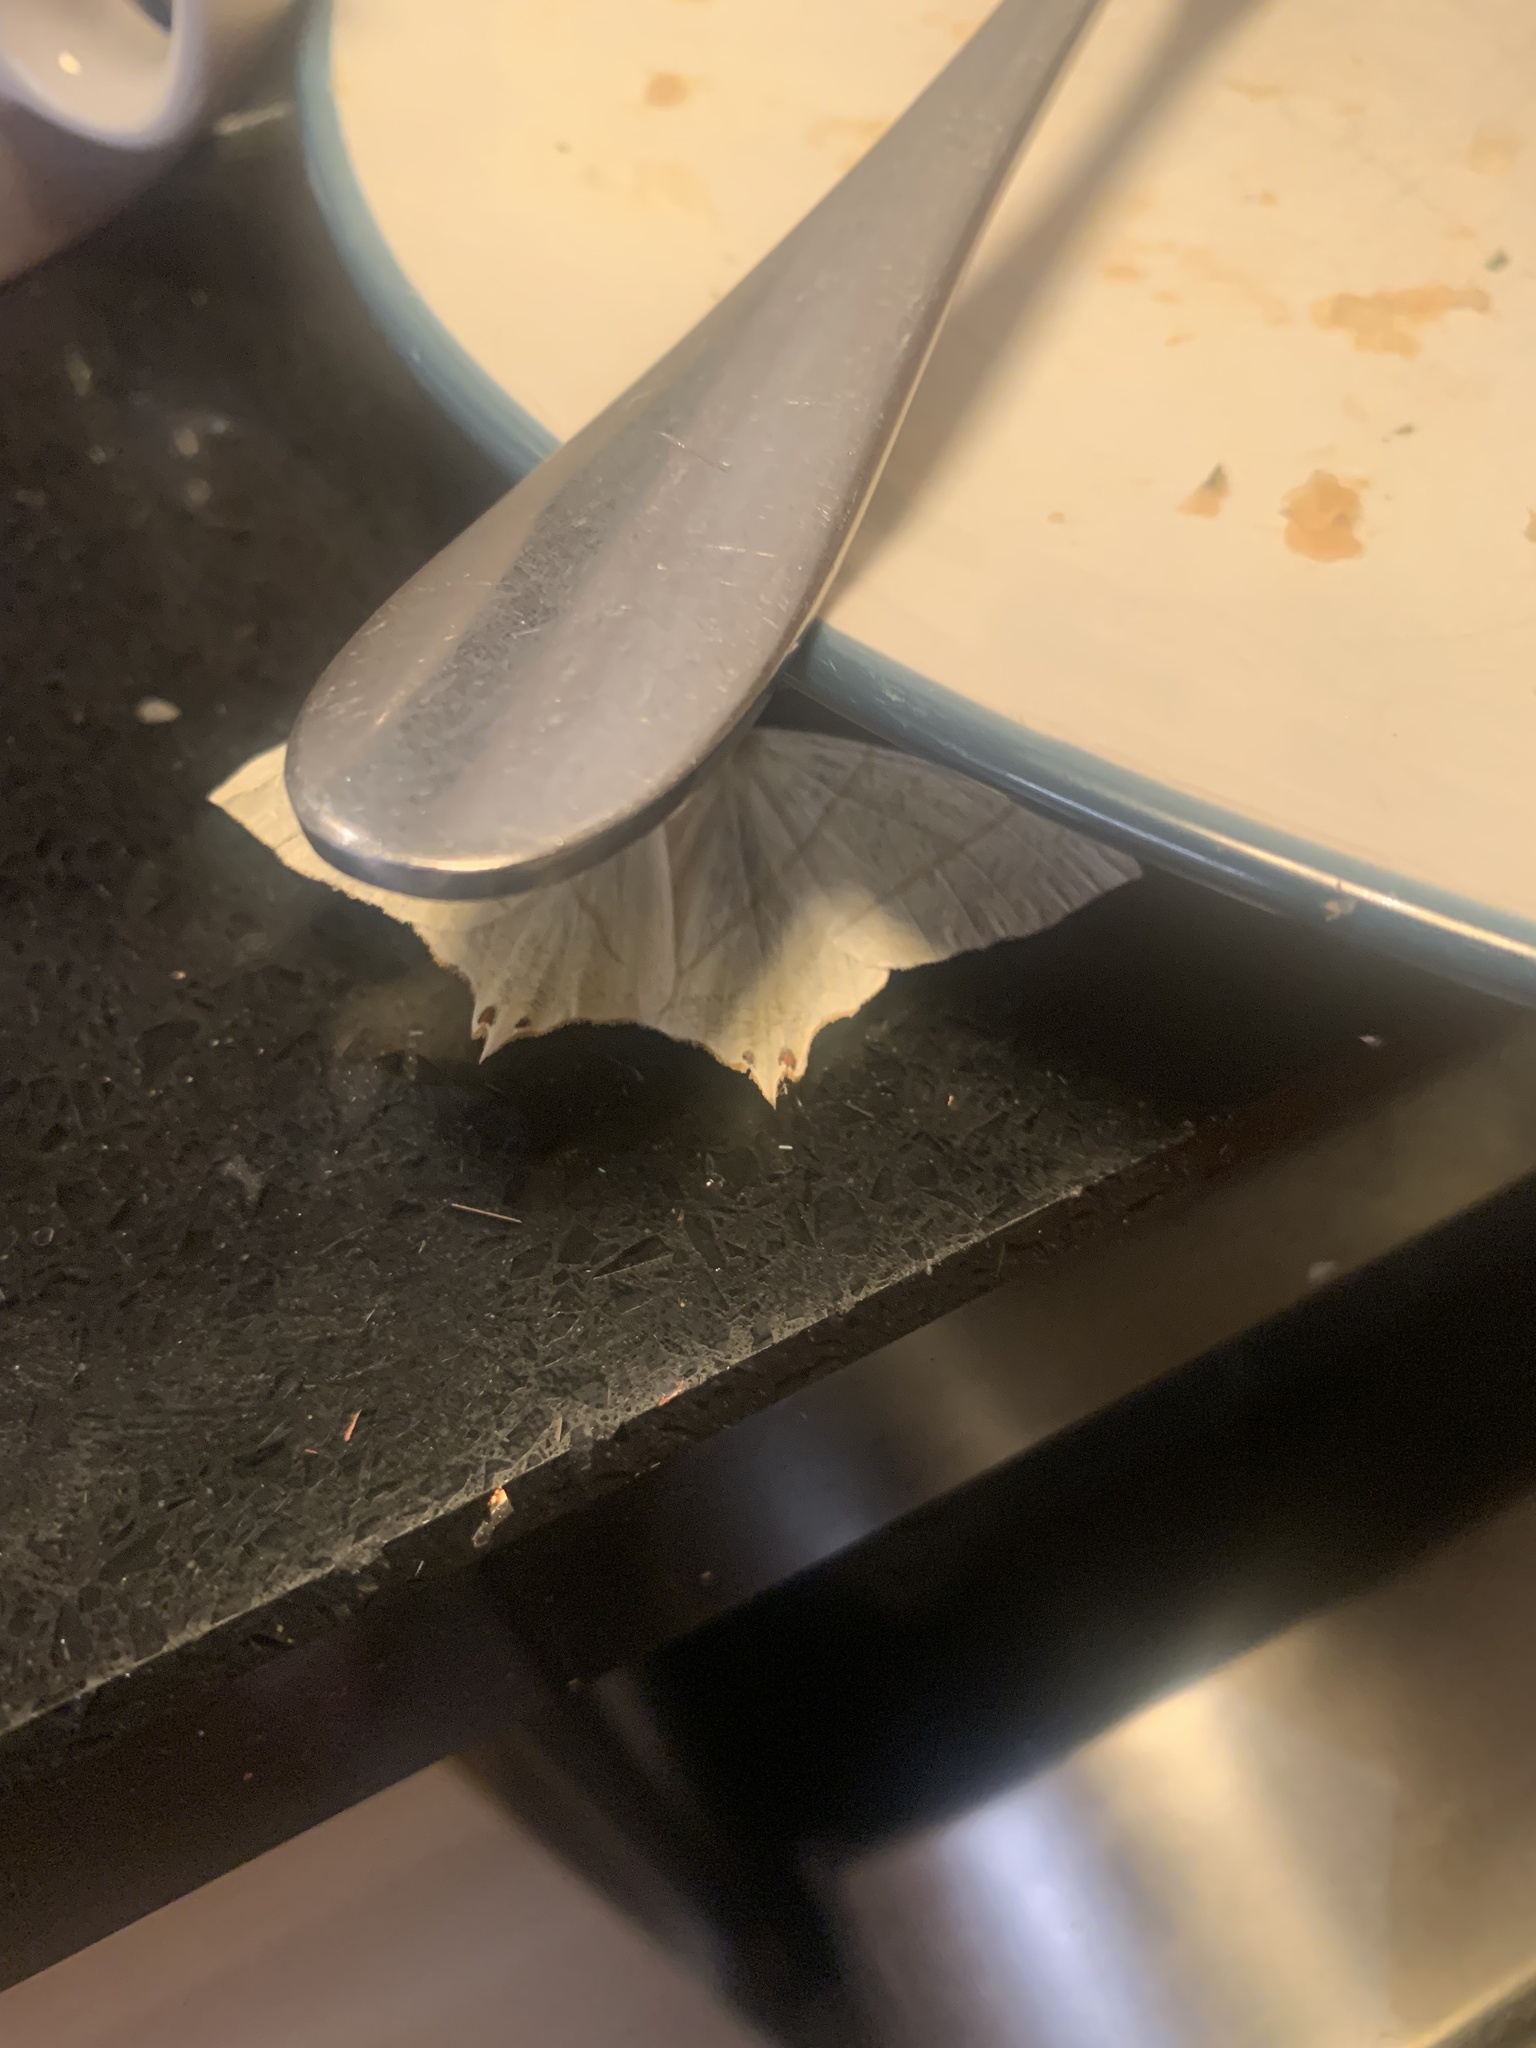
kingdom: Animalia
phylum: Arthropoda
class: Insecta
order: Lepidoptera
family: Geometridae
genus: Ourapteryx
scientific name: Ourapteryx sambucaria
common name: Swallow-tailed moth
